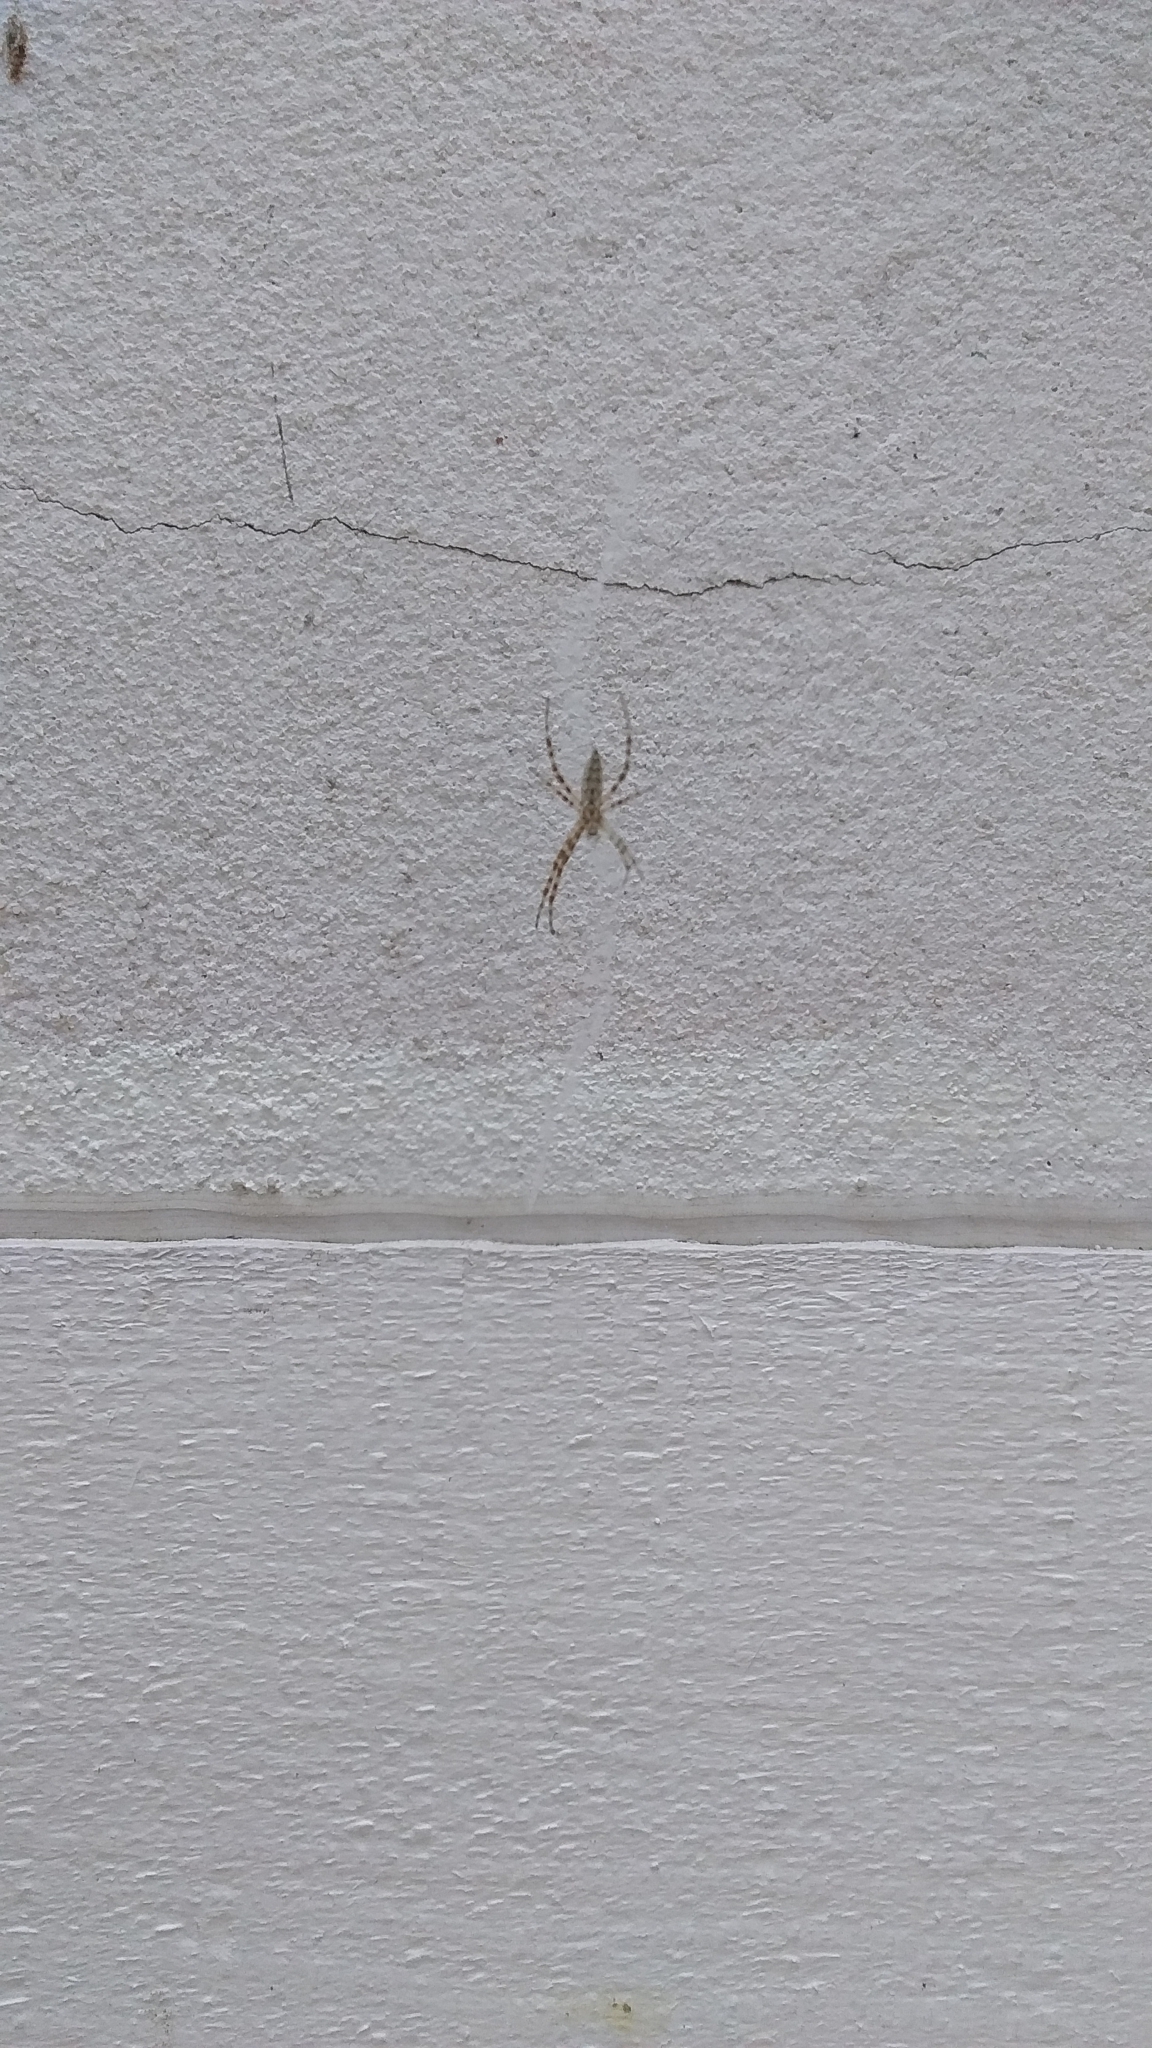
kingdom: Animalia
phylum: Arthropoda
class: Arachnida
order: Araneae
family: Araneidae
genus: Argiope
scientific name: Argiope aurantia
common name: Orb weavers
